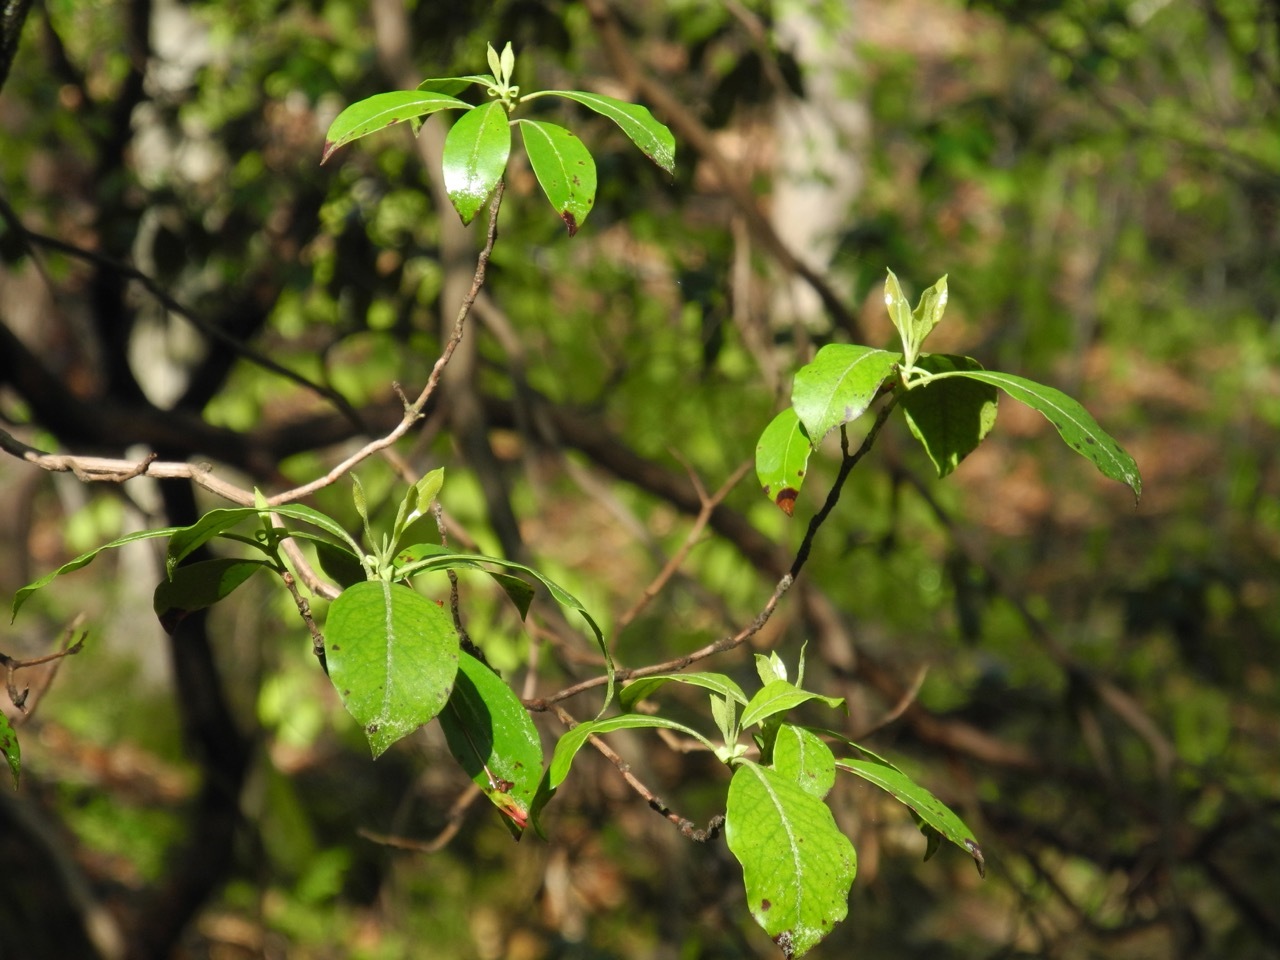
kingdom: Plantae
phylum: Tracheophyta
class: Magnoliopsida
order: Ericales
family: Ericaceae
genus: Kalmia
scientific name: Kalmia latifolia
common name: Mountain-laurel
